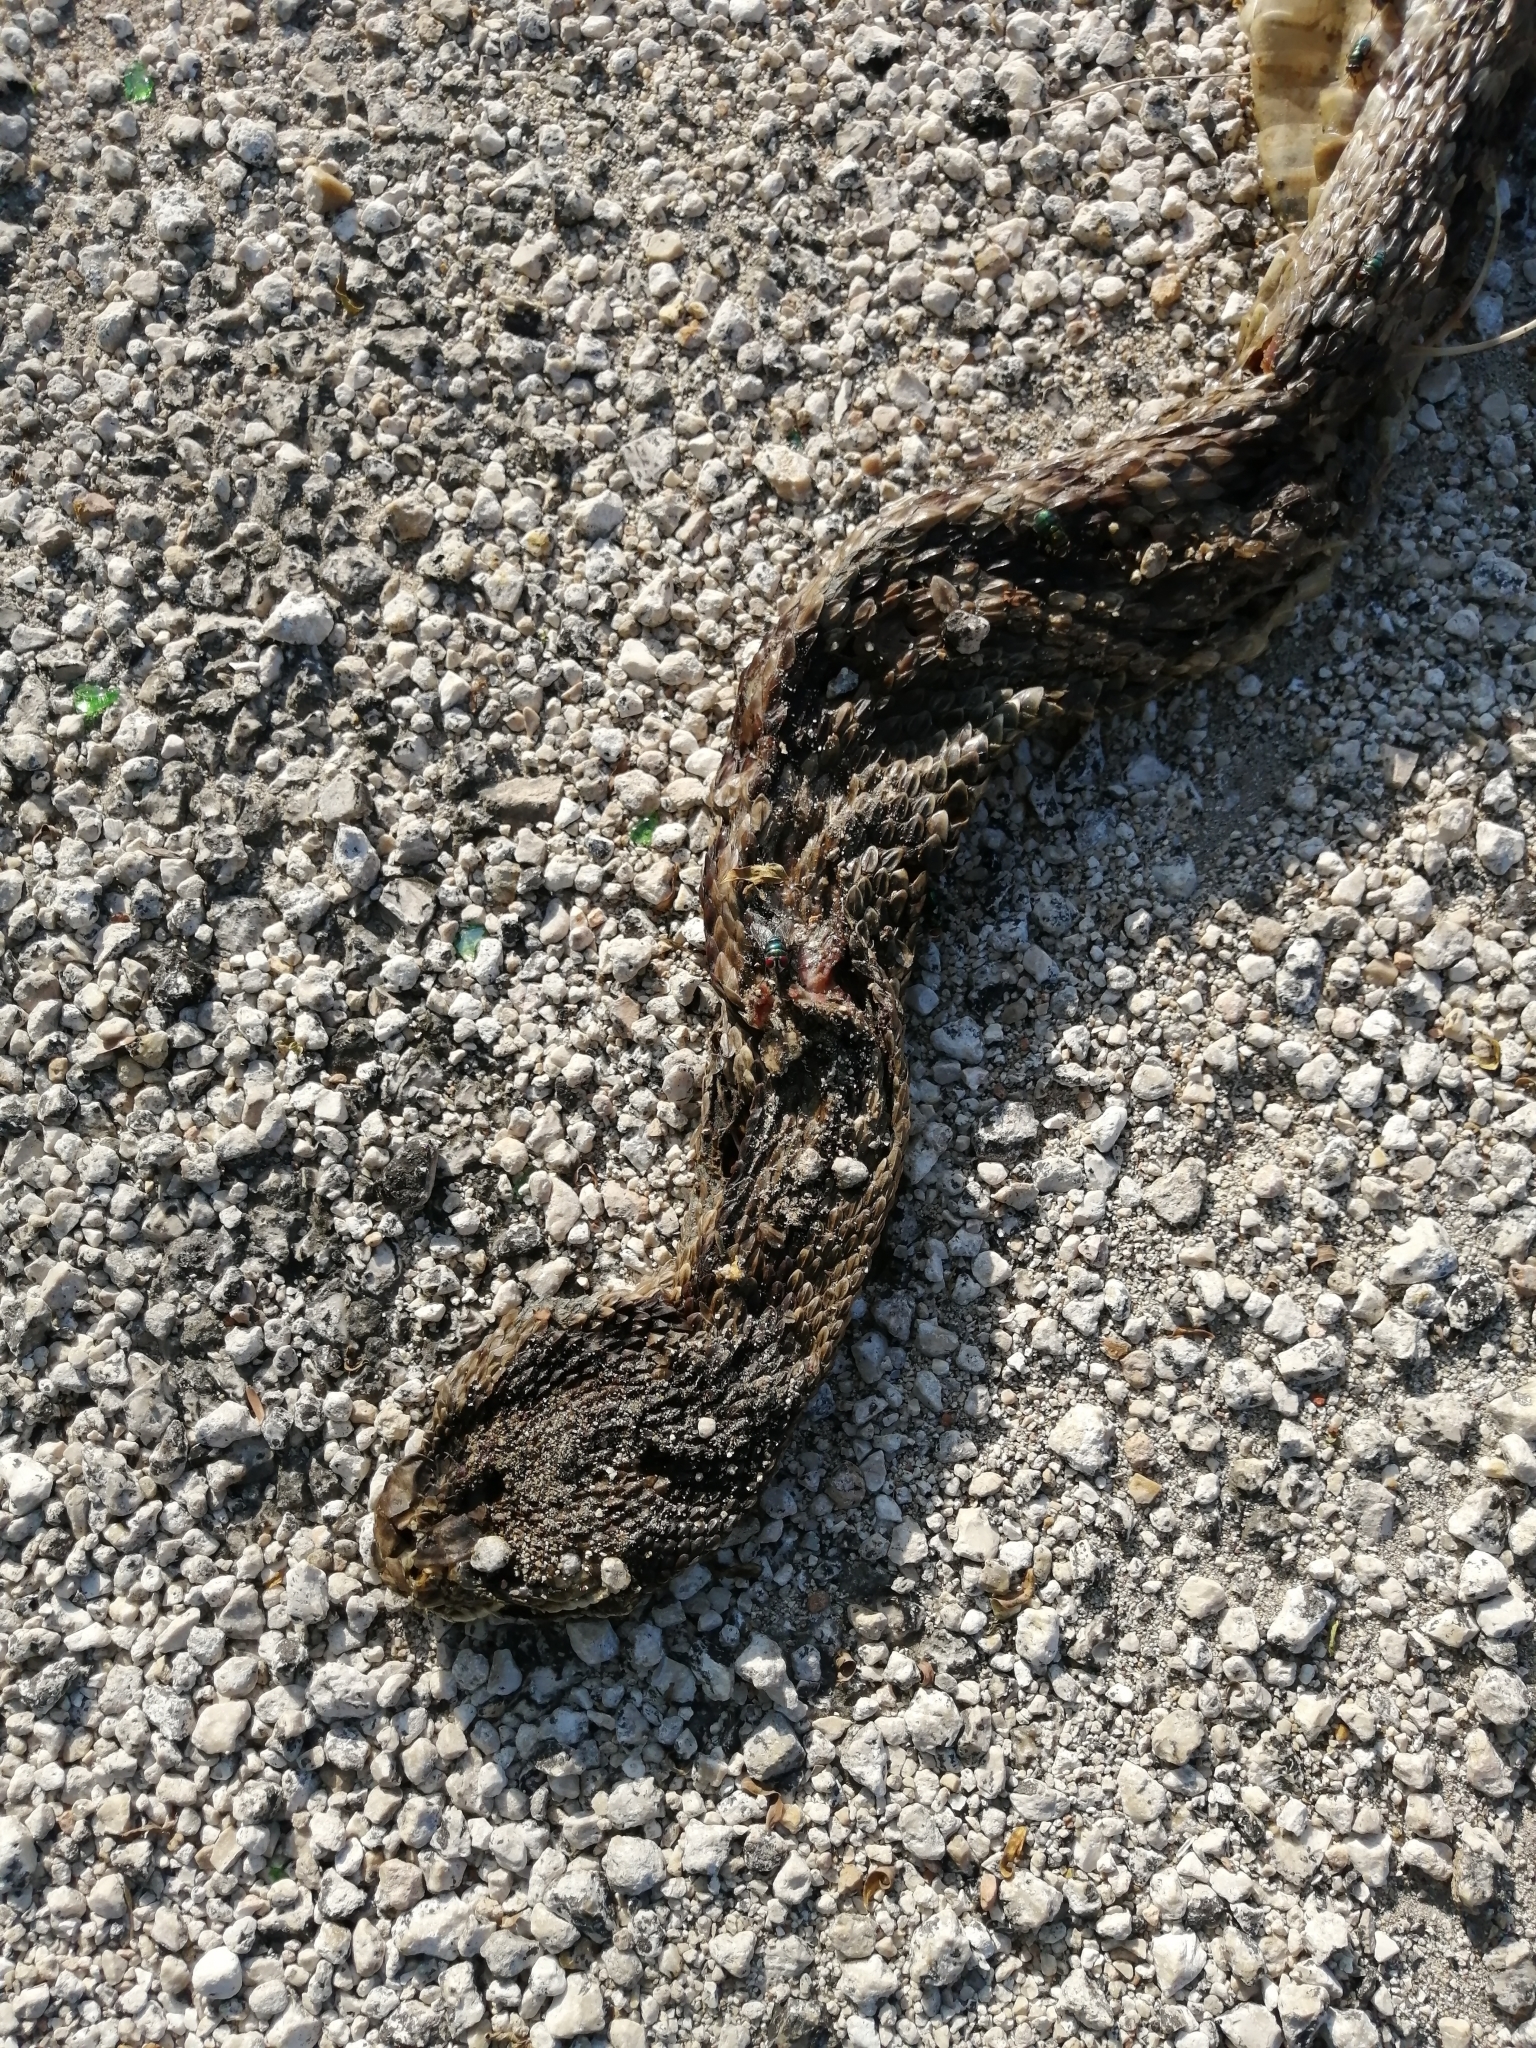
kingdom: Animalia
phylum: Chordata
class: Squamata
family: Viperidae
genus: Crotalus
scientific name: Crotalus tzabcan
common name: Yucatan neotropical rattlesnake
